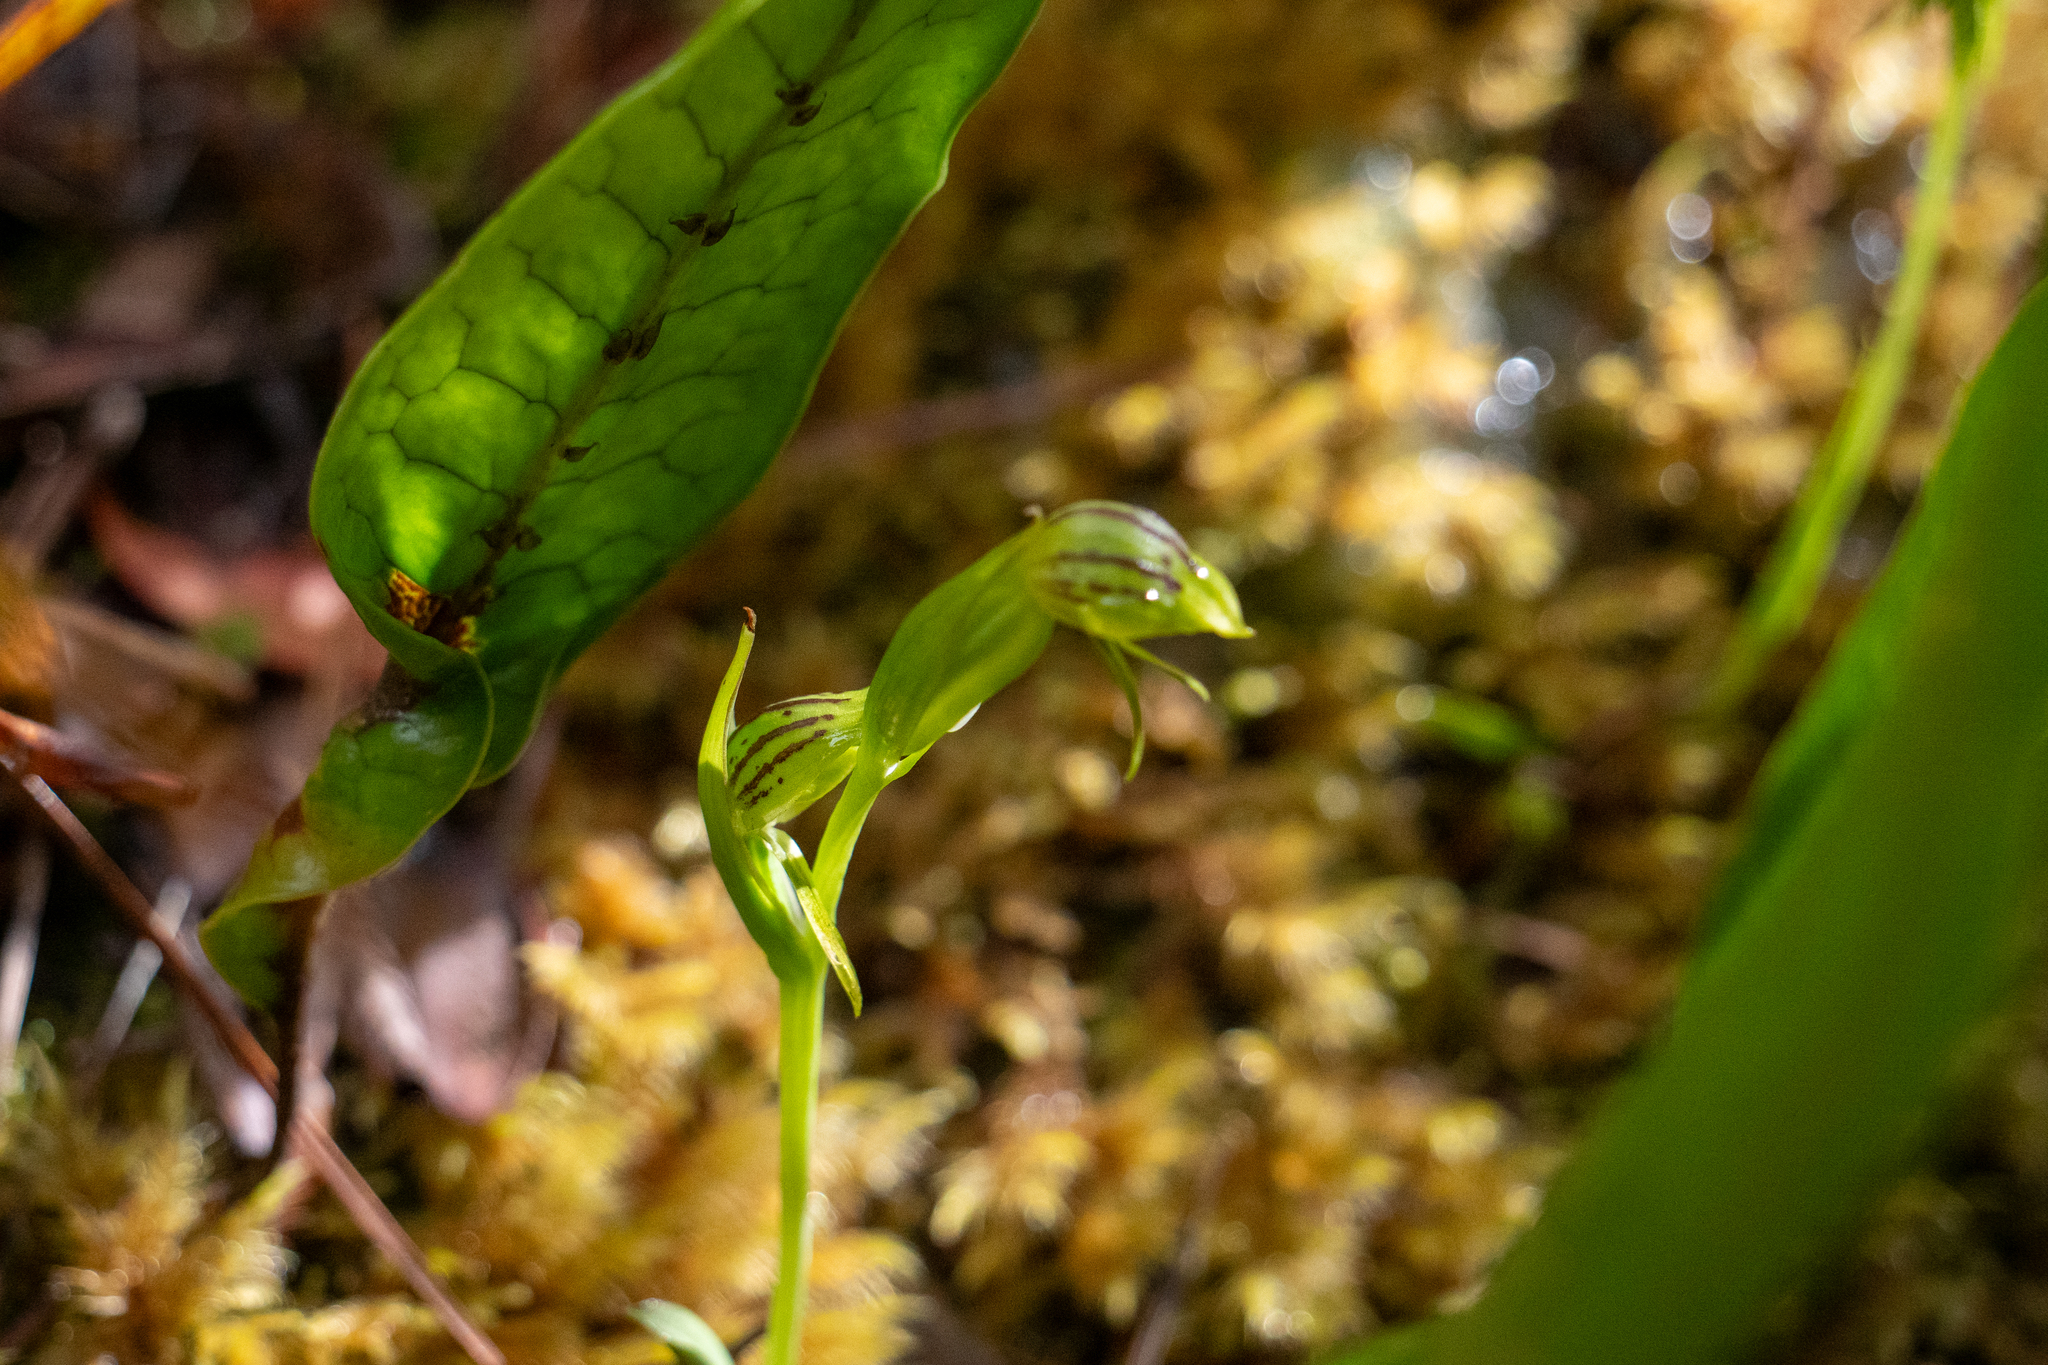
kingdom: Plantae
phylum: Tracheophyta
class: Liliopsida
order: Asparagales
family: Orchidaceae
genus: Waireia
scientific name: Waireia stenopetala
